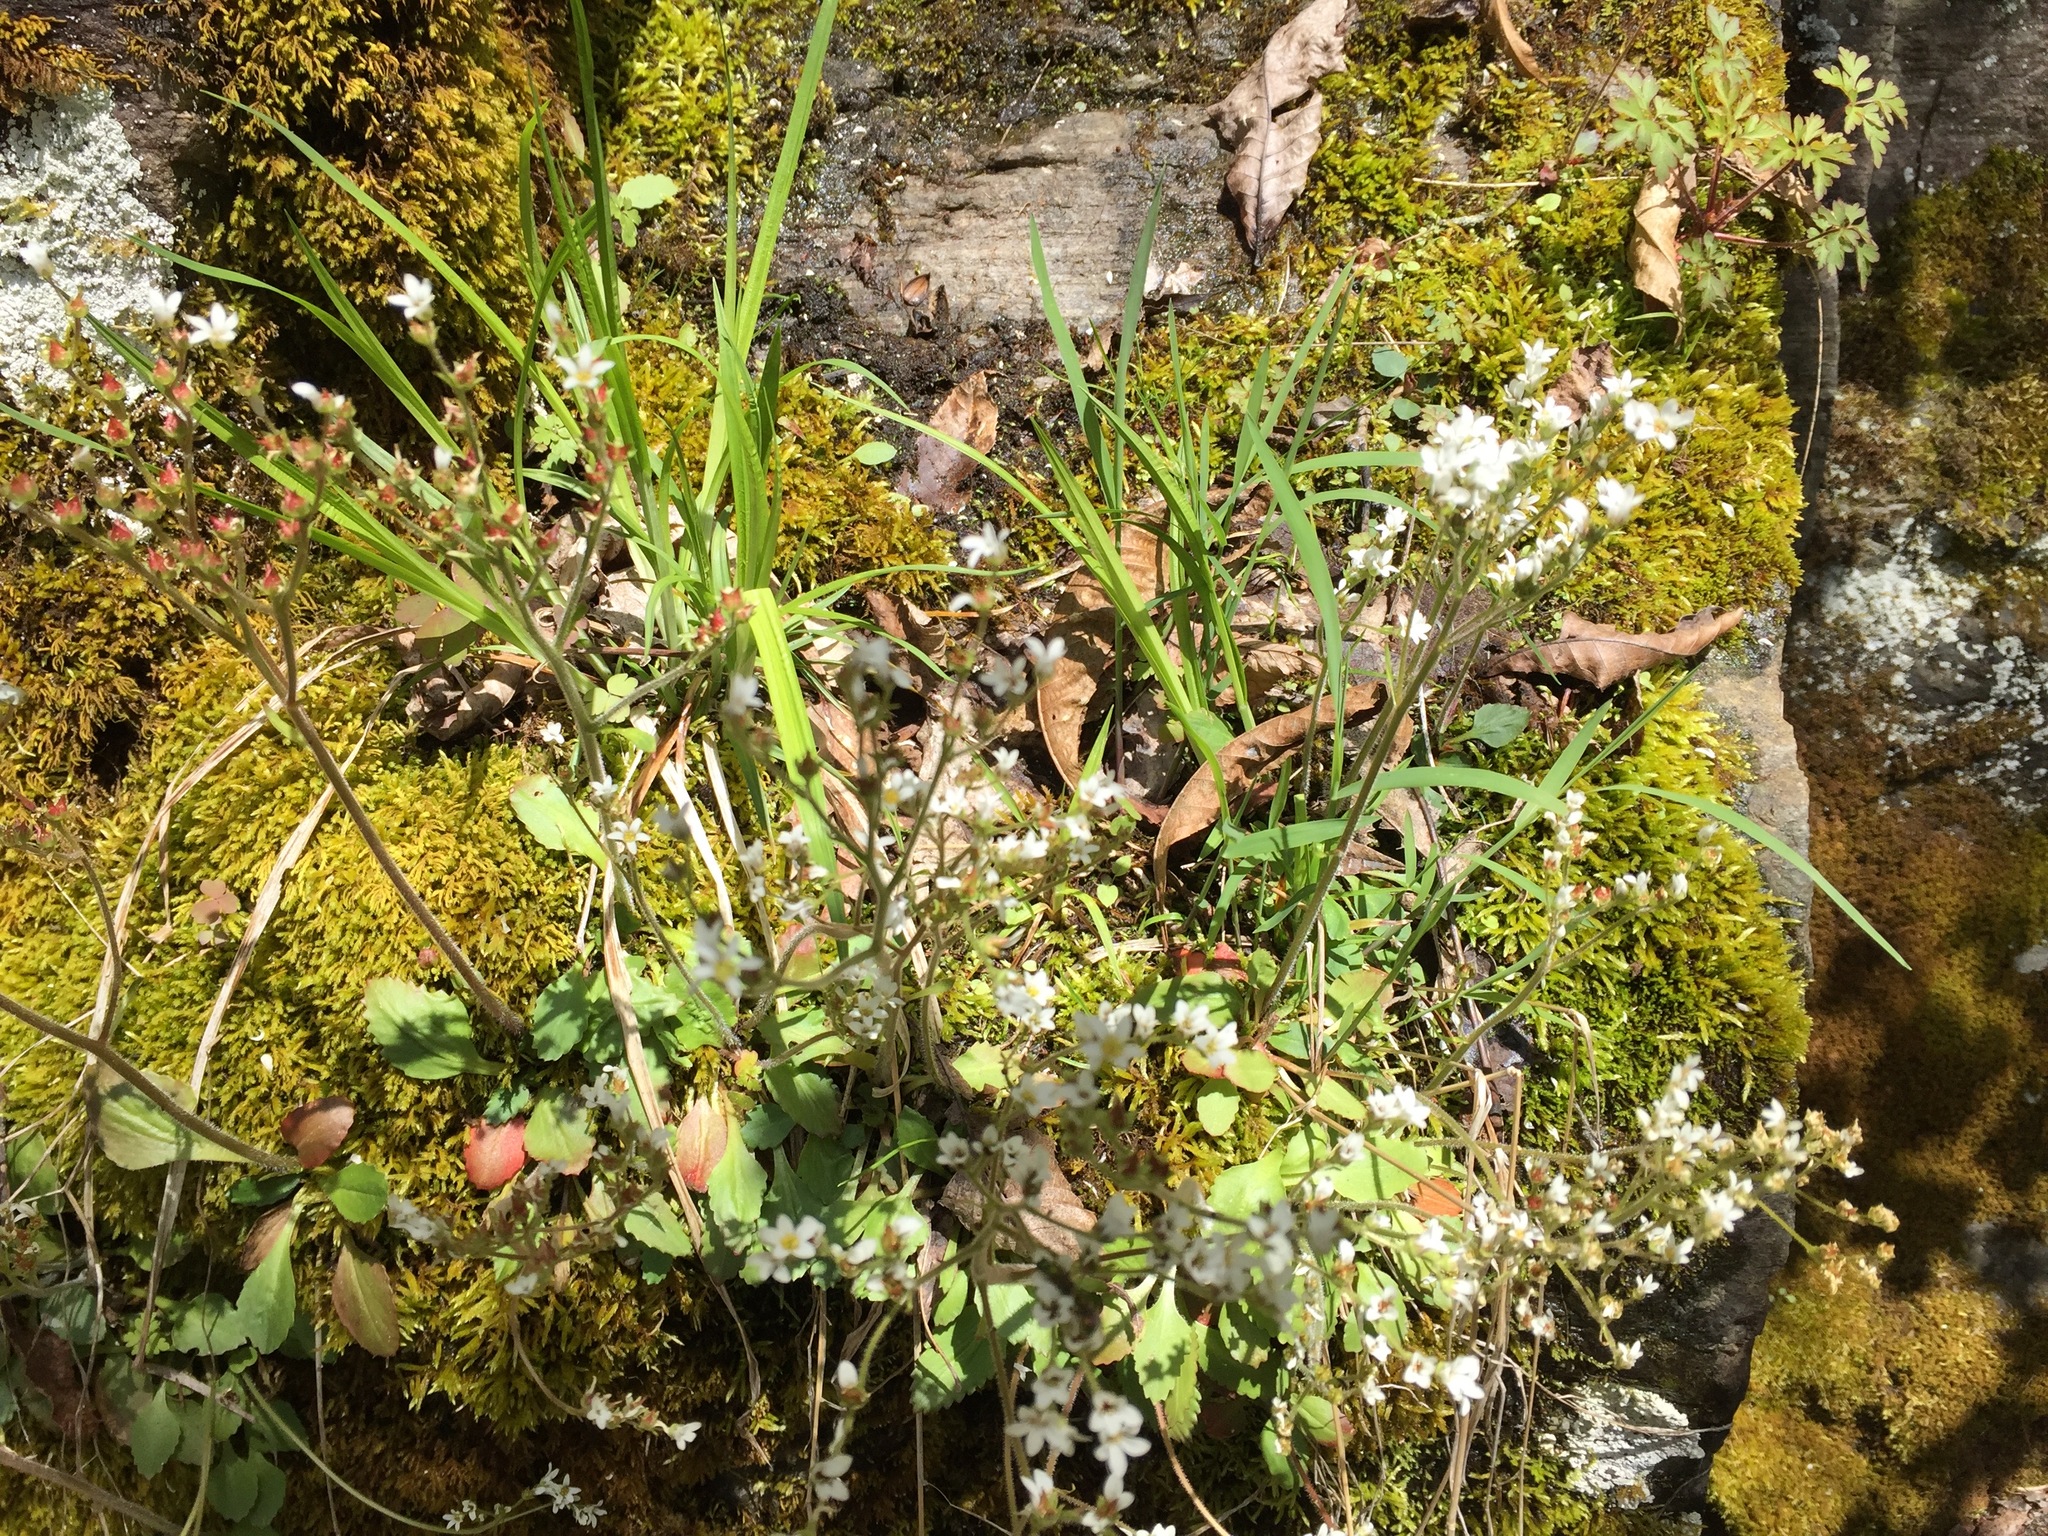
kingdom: Plantae
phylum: Tracheophyta
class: Magnoliopsida
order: Saxifragales
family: Saxifragaceae
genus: Micranthes
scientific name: Micranthes virginiensis
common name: Early saxifrage
